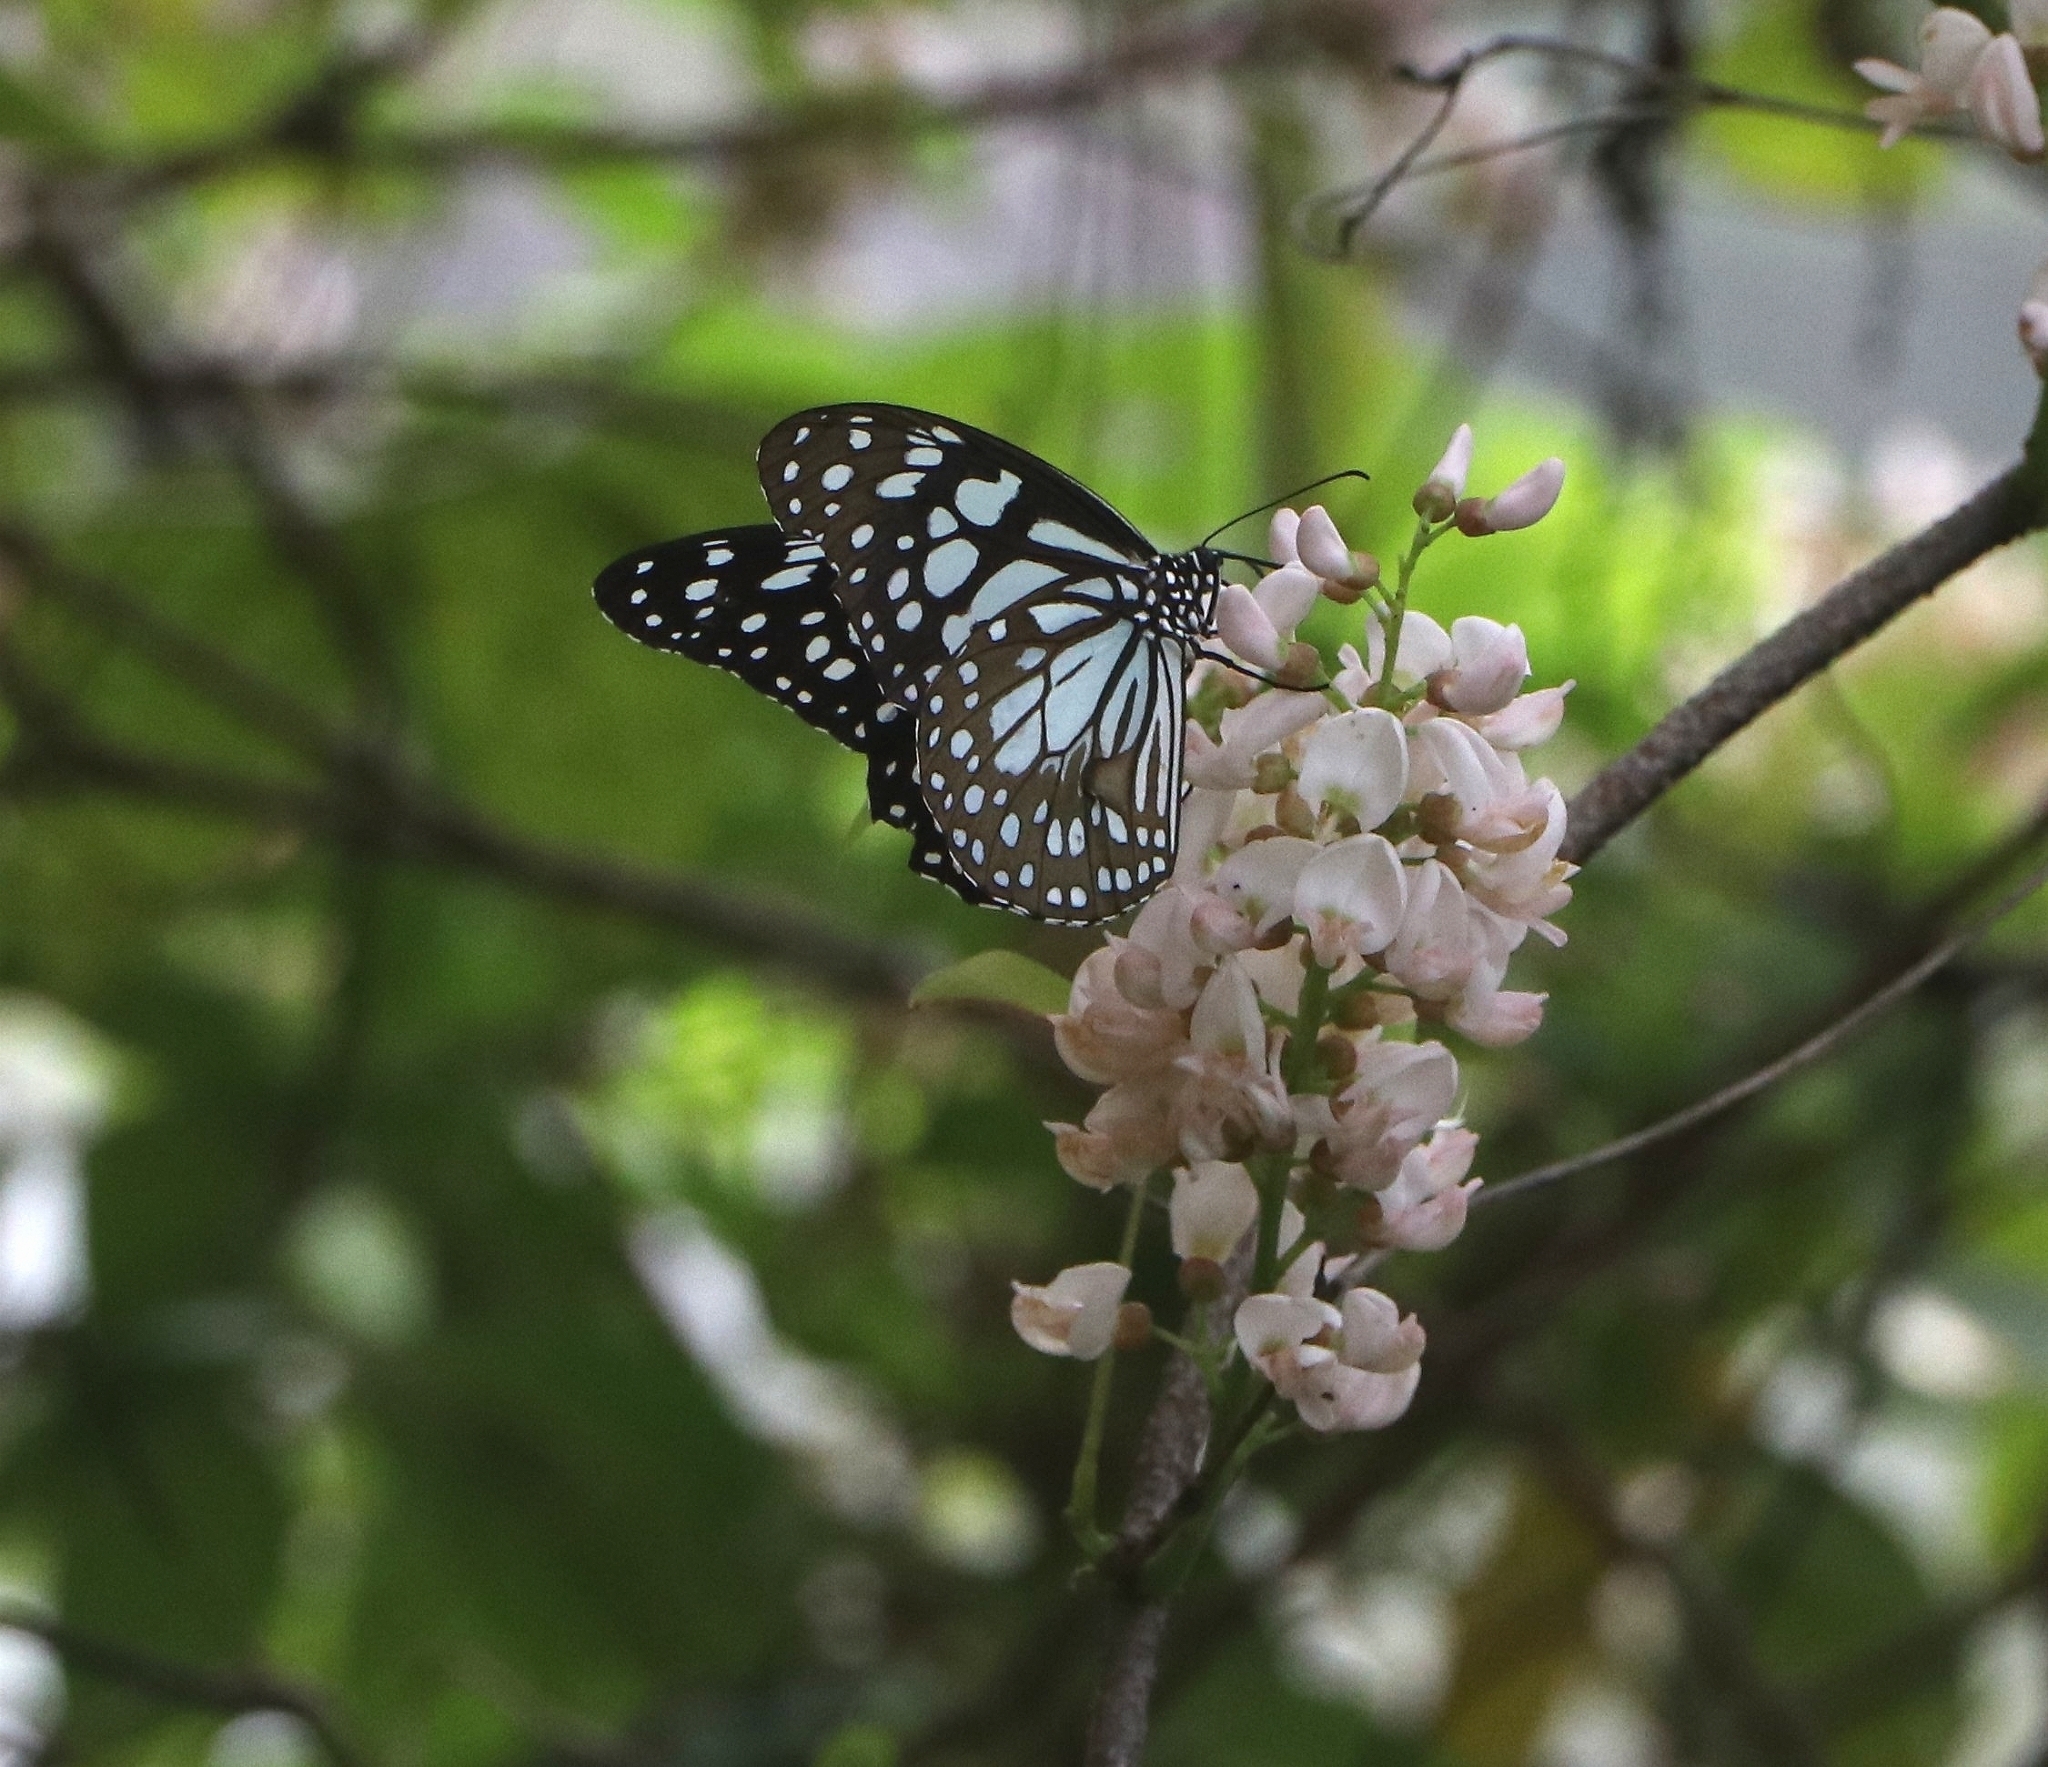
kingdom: Animalia
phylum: Arthropoda
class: Insecta
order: Lepidoptera
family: Nymphalidae
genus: Tirumala
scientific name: Tirumala limniace
